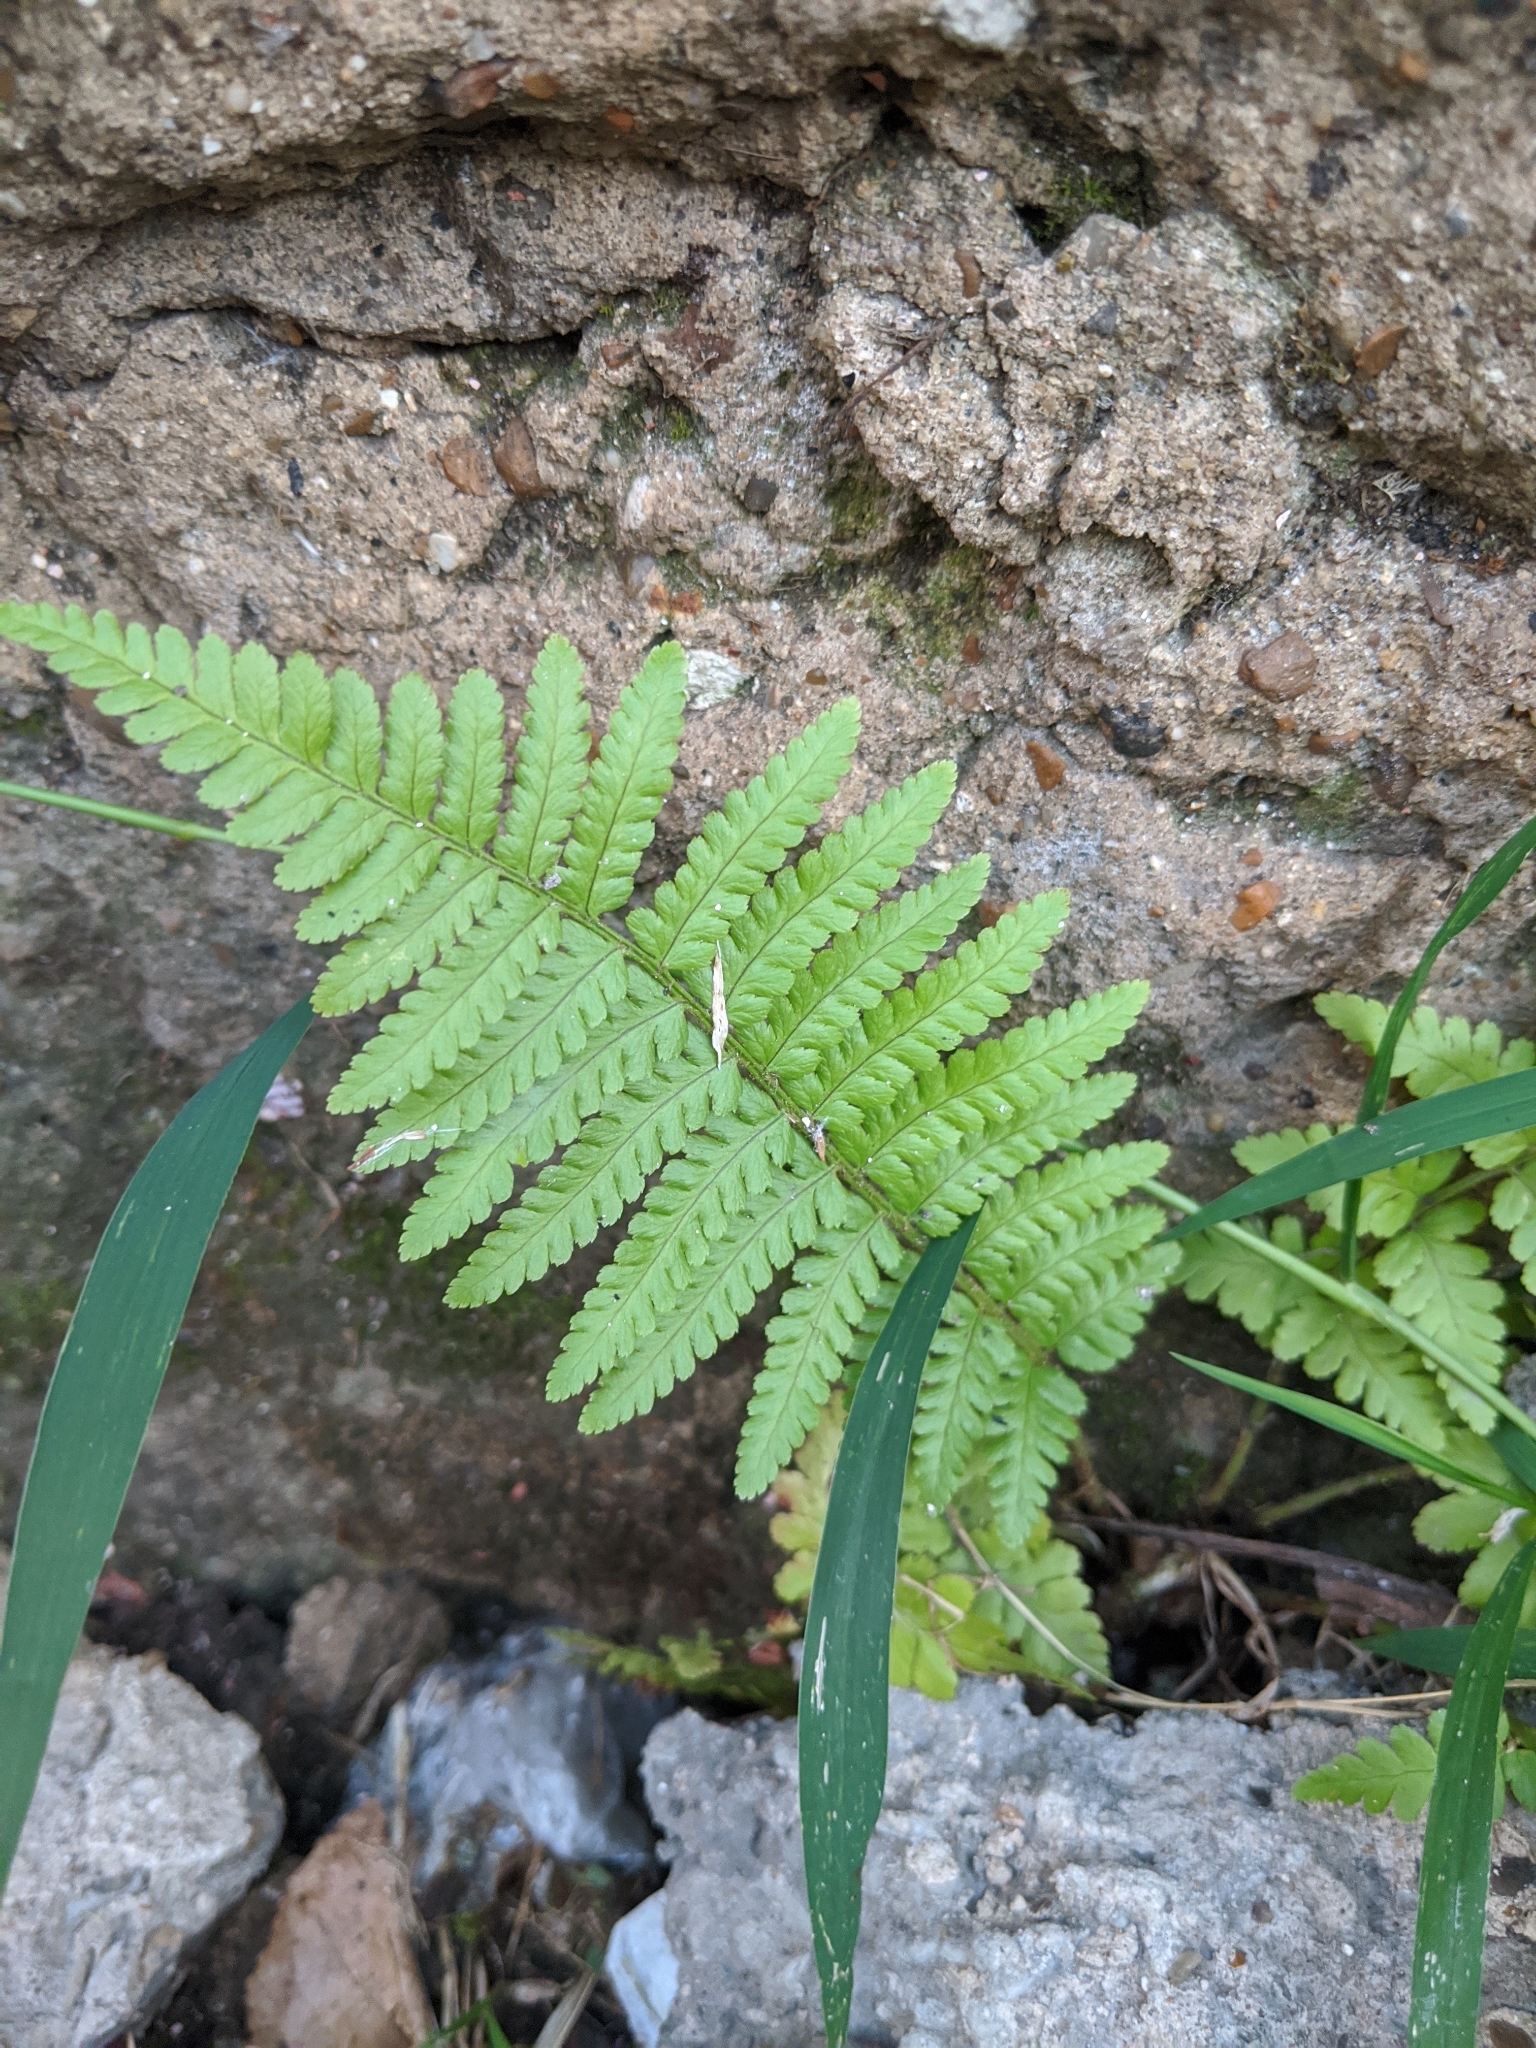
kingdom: Plantae
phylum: Tracheophyta
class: Polypodiopsida
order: Polypodiales
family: Dryopteridaceae
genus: Dryopteris
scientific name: Dryopteris filix-mas
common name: Male fern
